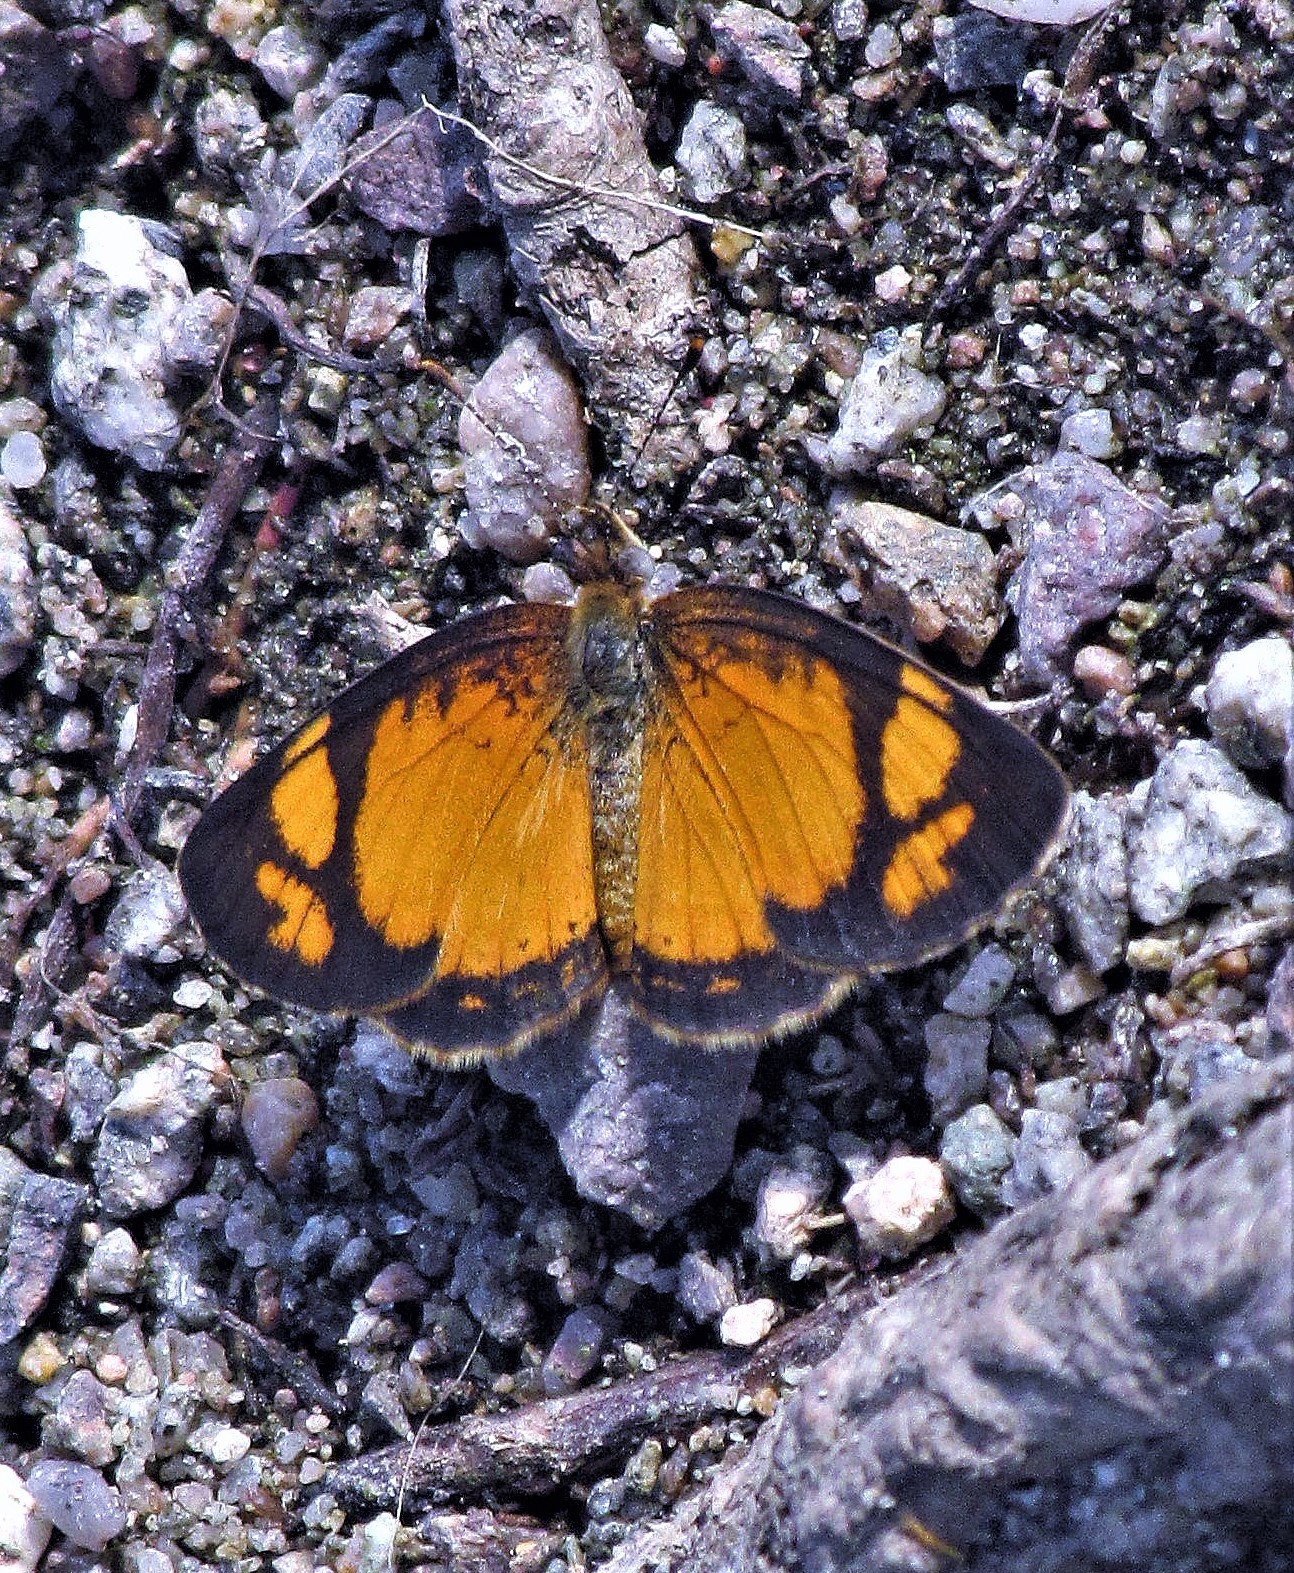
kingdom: Animalia
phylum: Arthropoda
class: Insecta
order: Lepidoptera
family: Nymphalidae
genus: Tegosa
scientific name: Tegosa claudina
